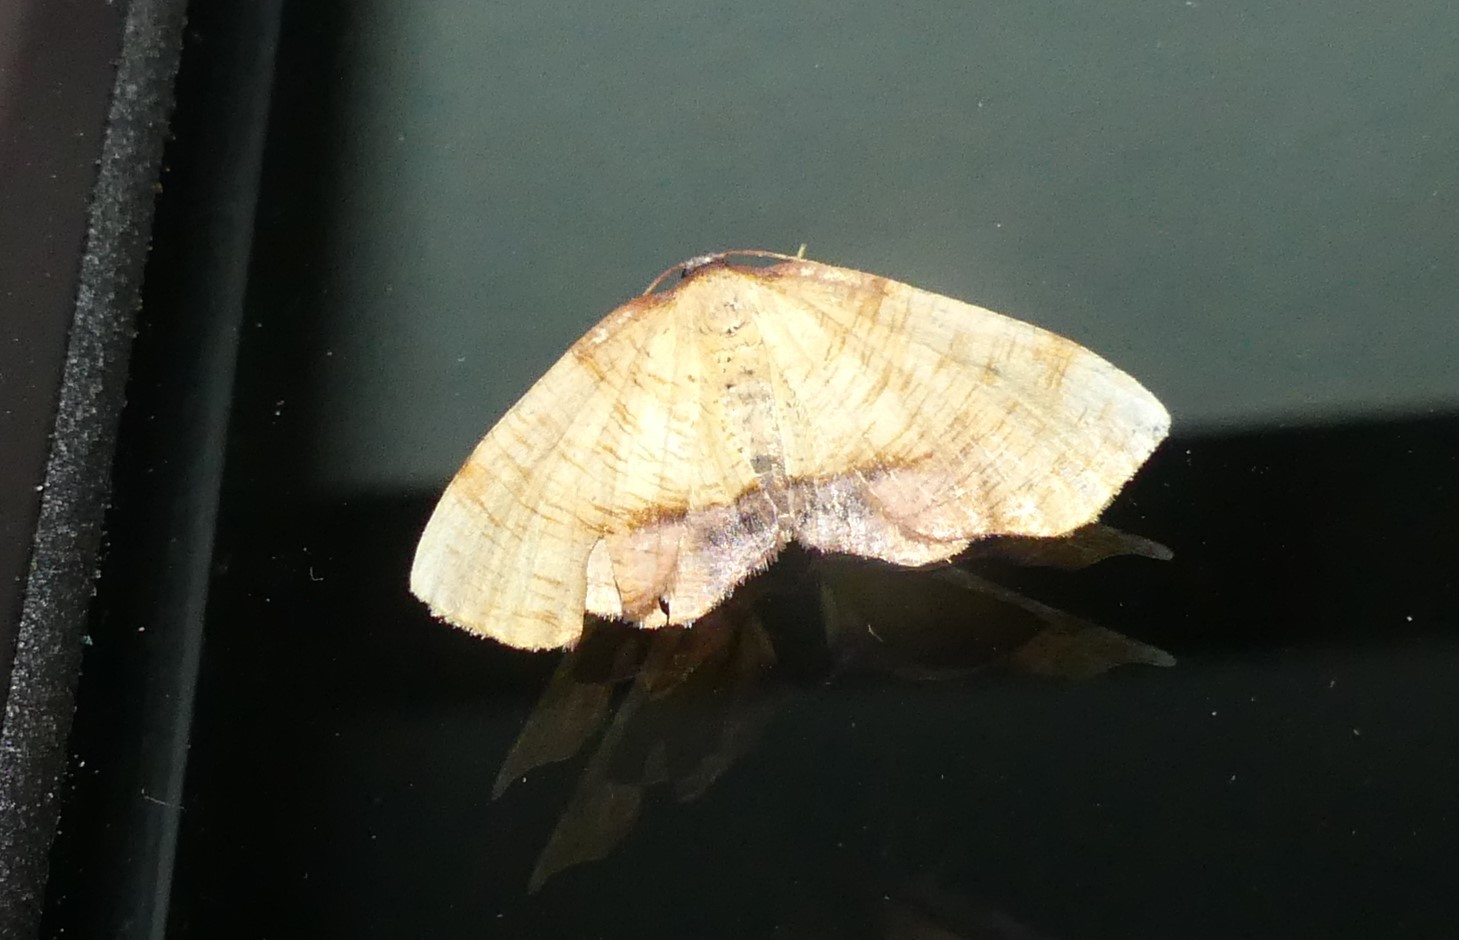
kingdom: Animalia
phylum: Arthropoda
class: Insecta
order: Lepidoptera
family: Geometridae
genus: Plagodis
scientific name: Plagodis dolabraria
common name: Scorched wing
